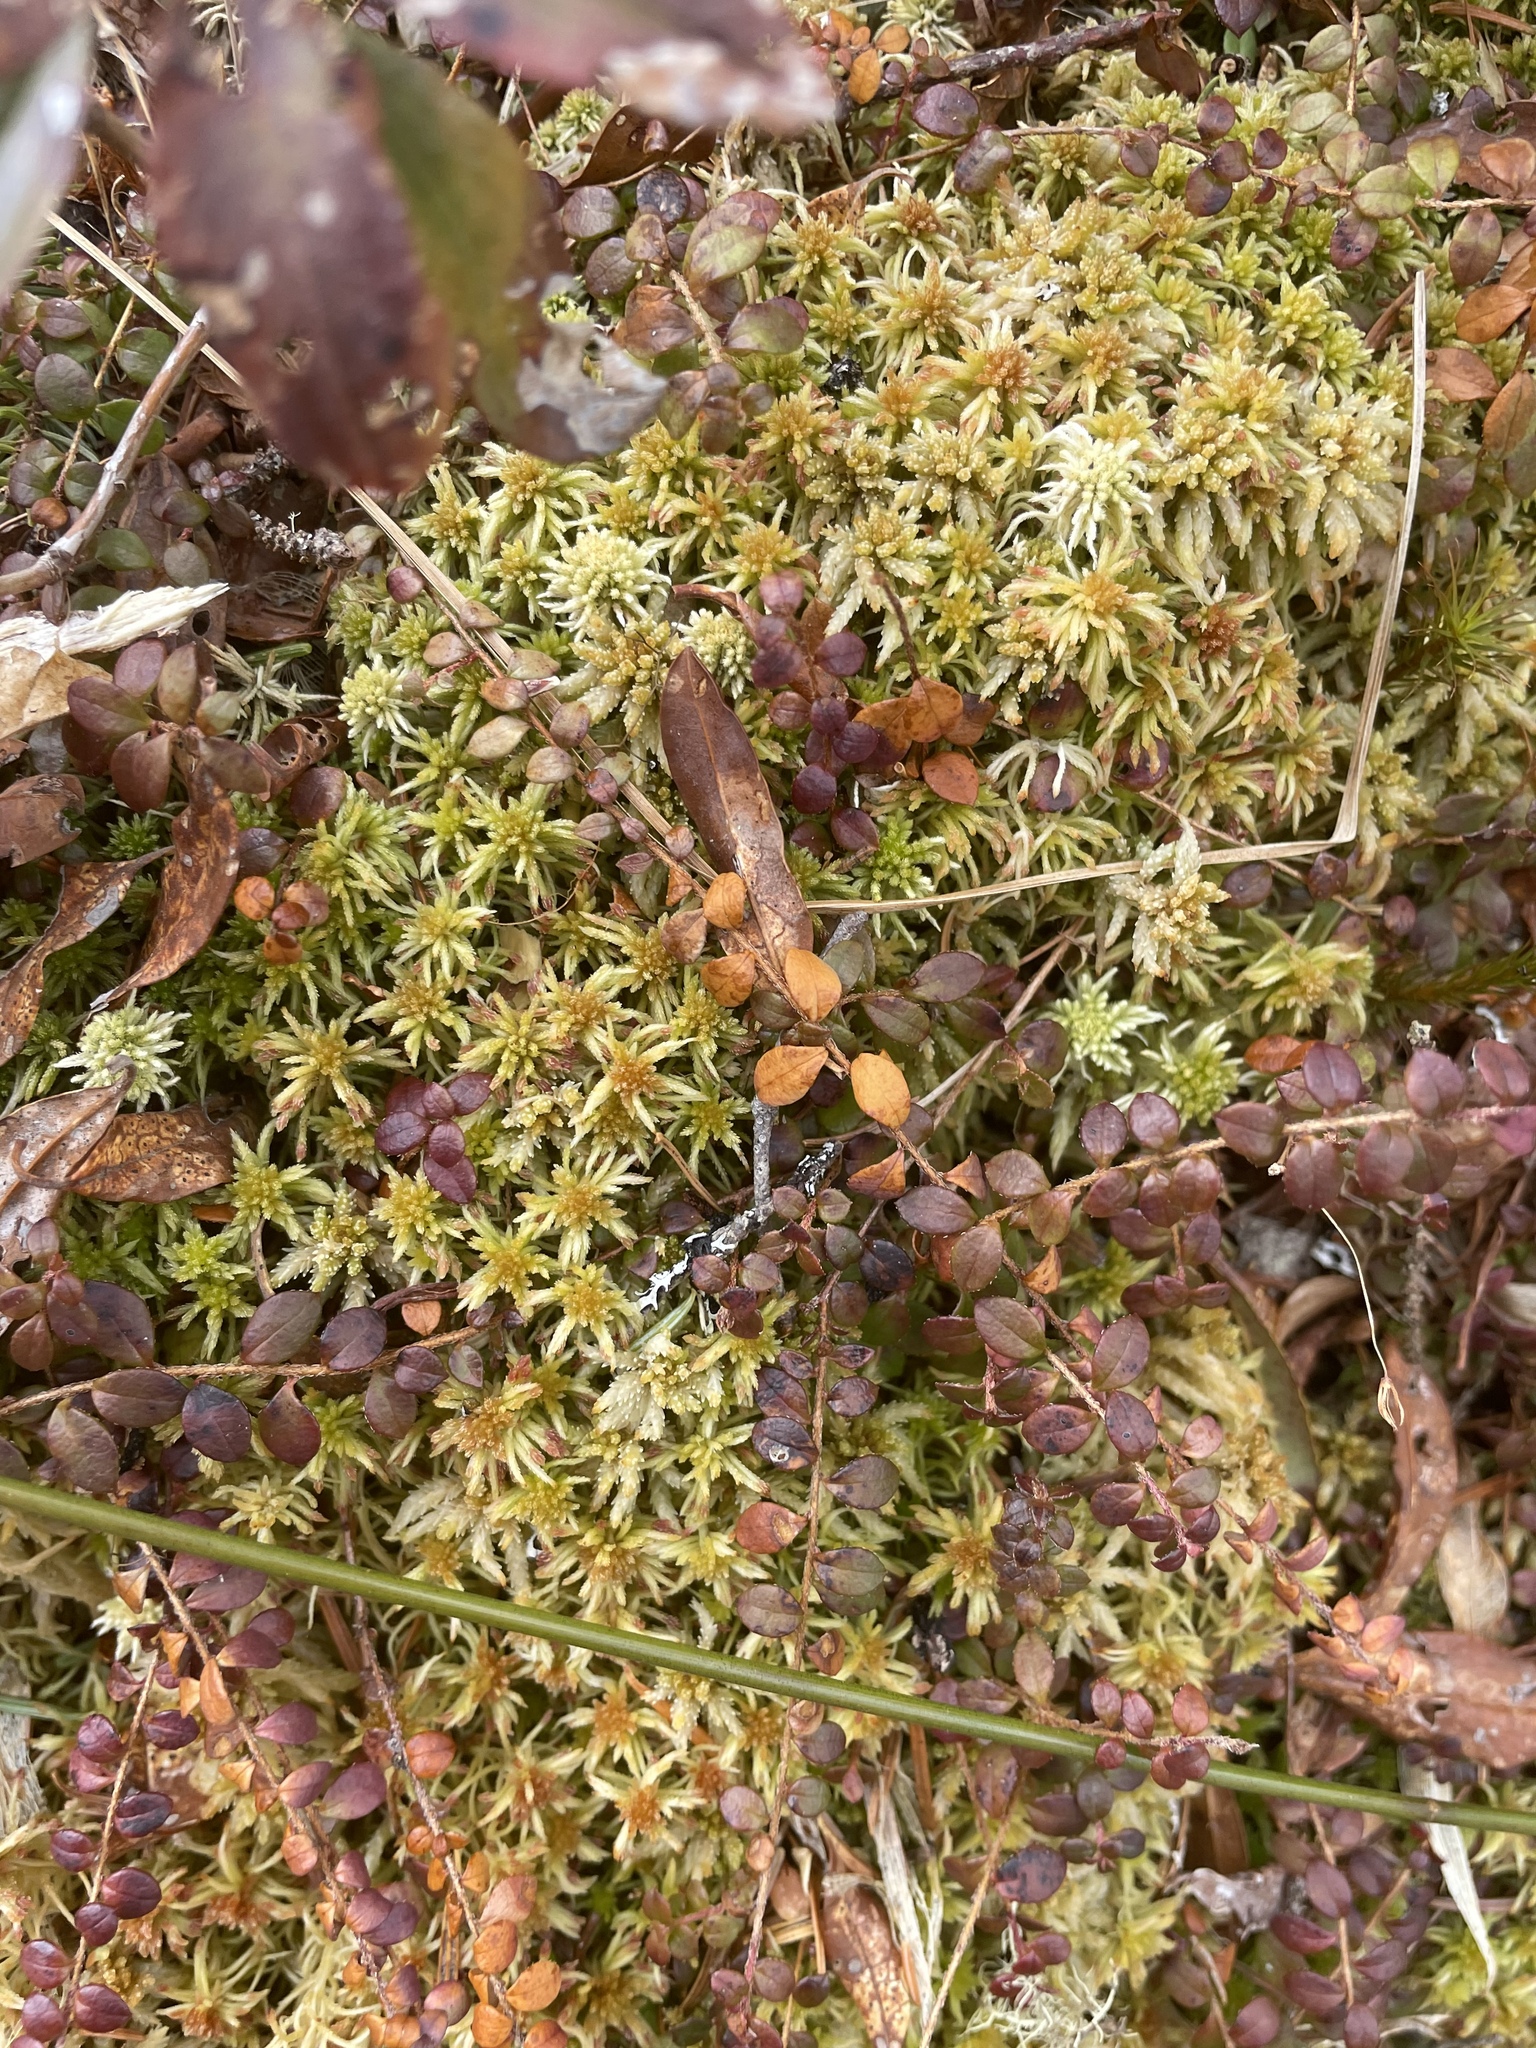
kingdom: Plantae
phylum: Tracheophyta
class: Magnoliopsida
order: Ericales
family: Ericaceae
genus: Gaultheria
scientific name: Gaultheria hispidula
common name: Cancer wintergreen
